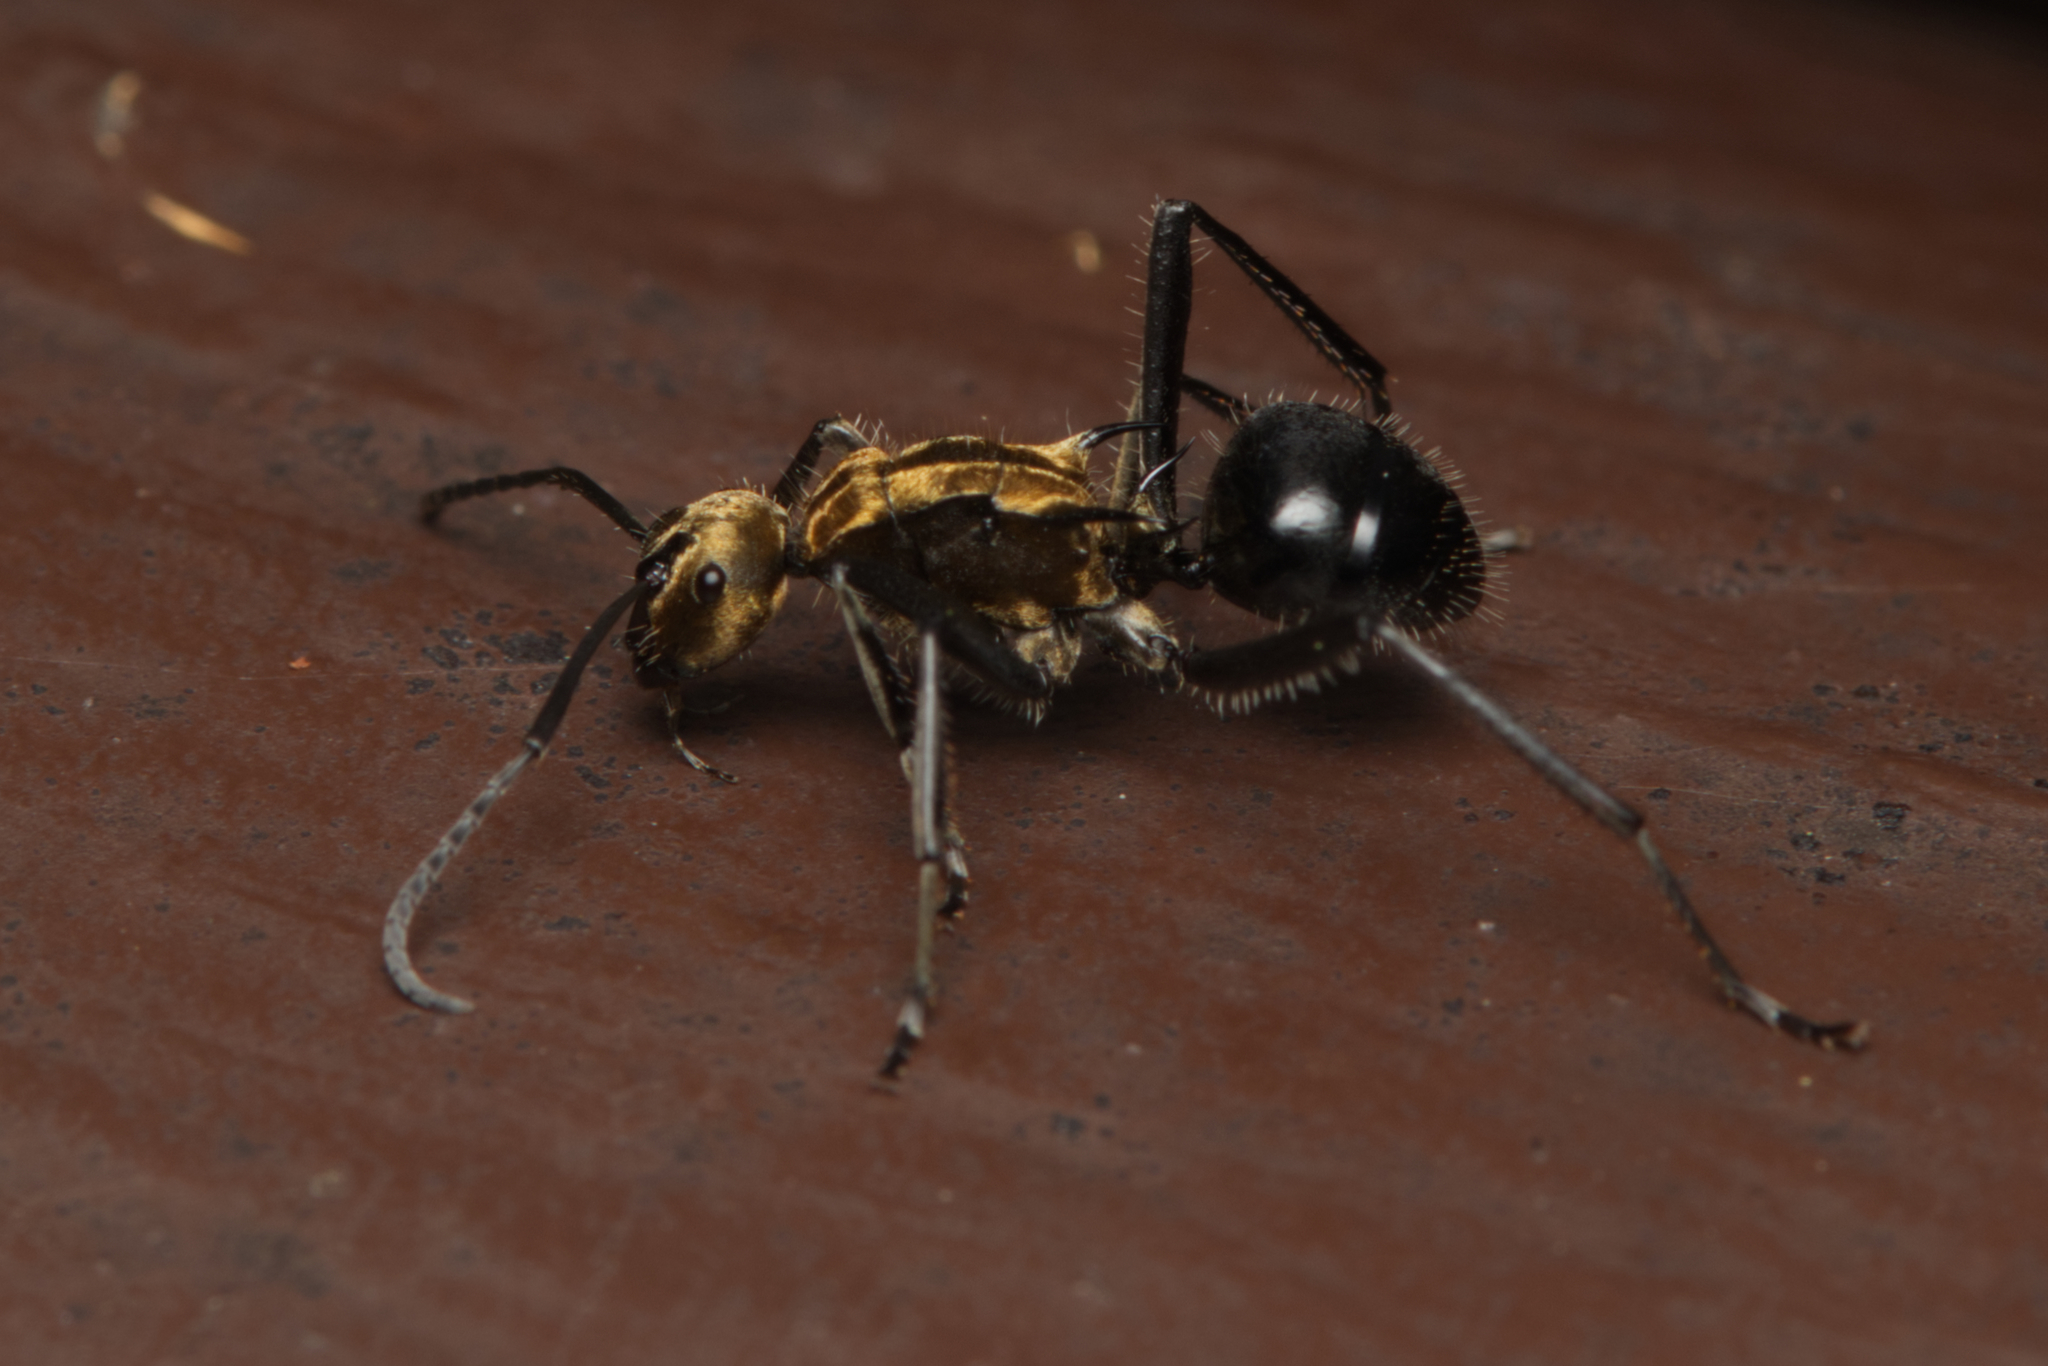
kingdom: Animalia
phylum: Arthropoda
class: Insecta
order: Hymenoptera
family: Formicidae
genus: Polyrhachis
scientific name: Polyrhachis semiaurata
